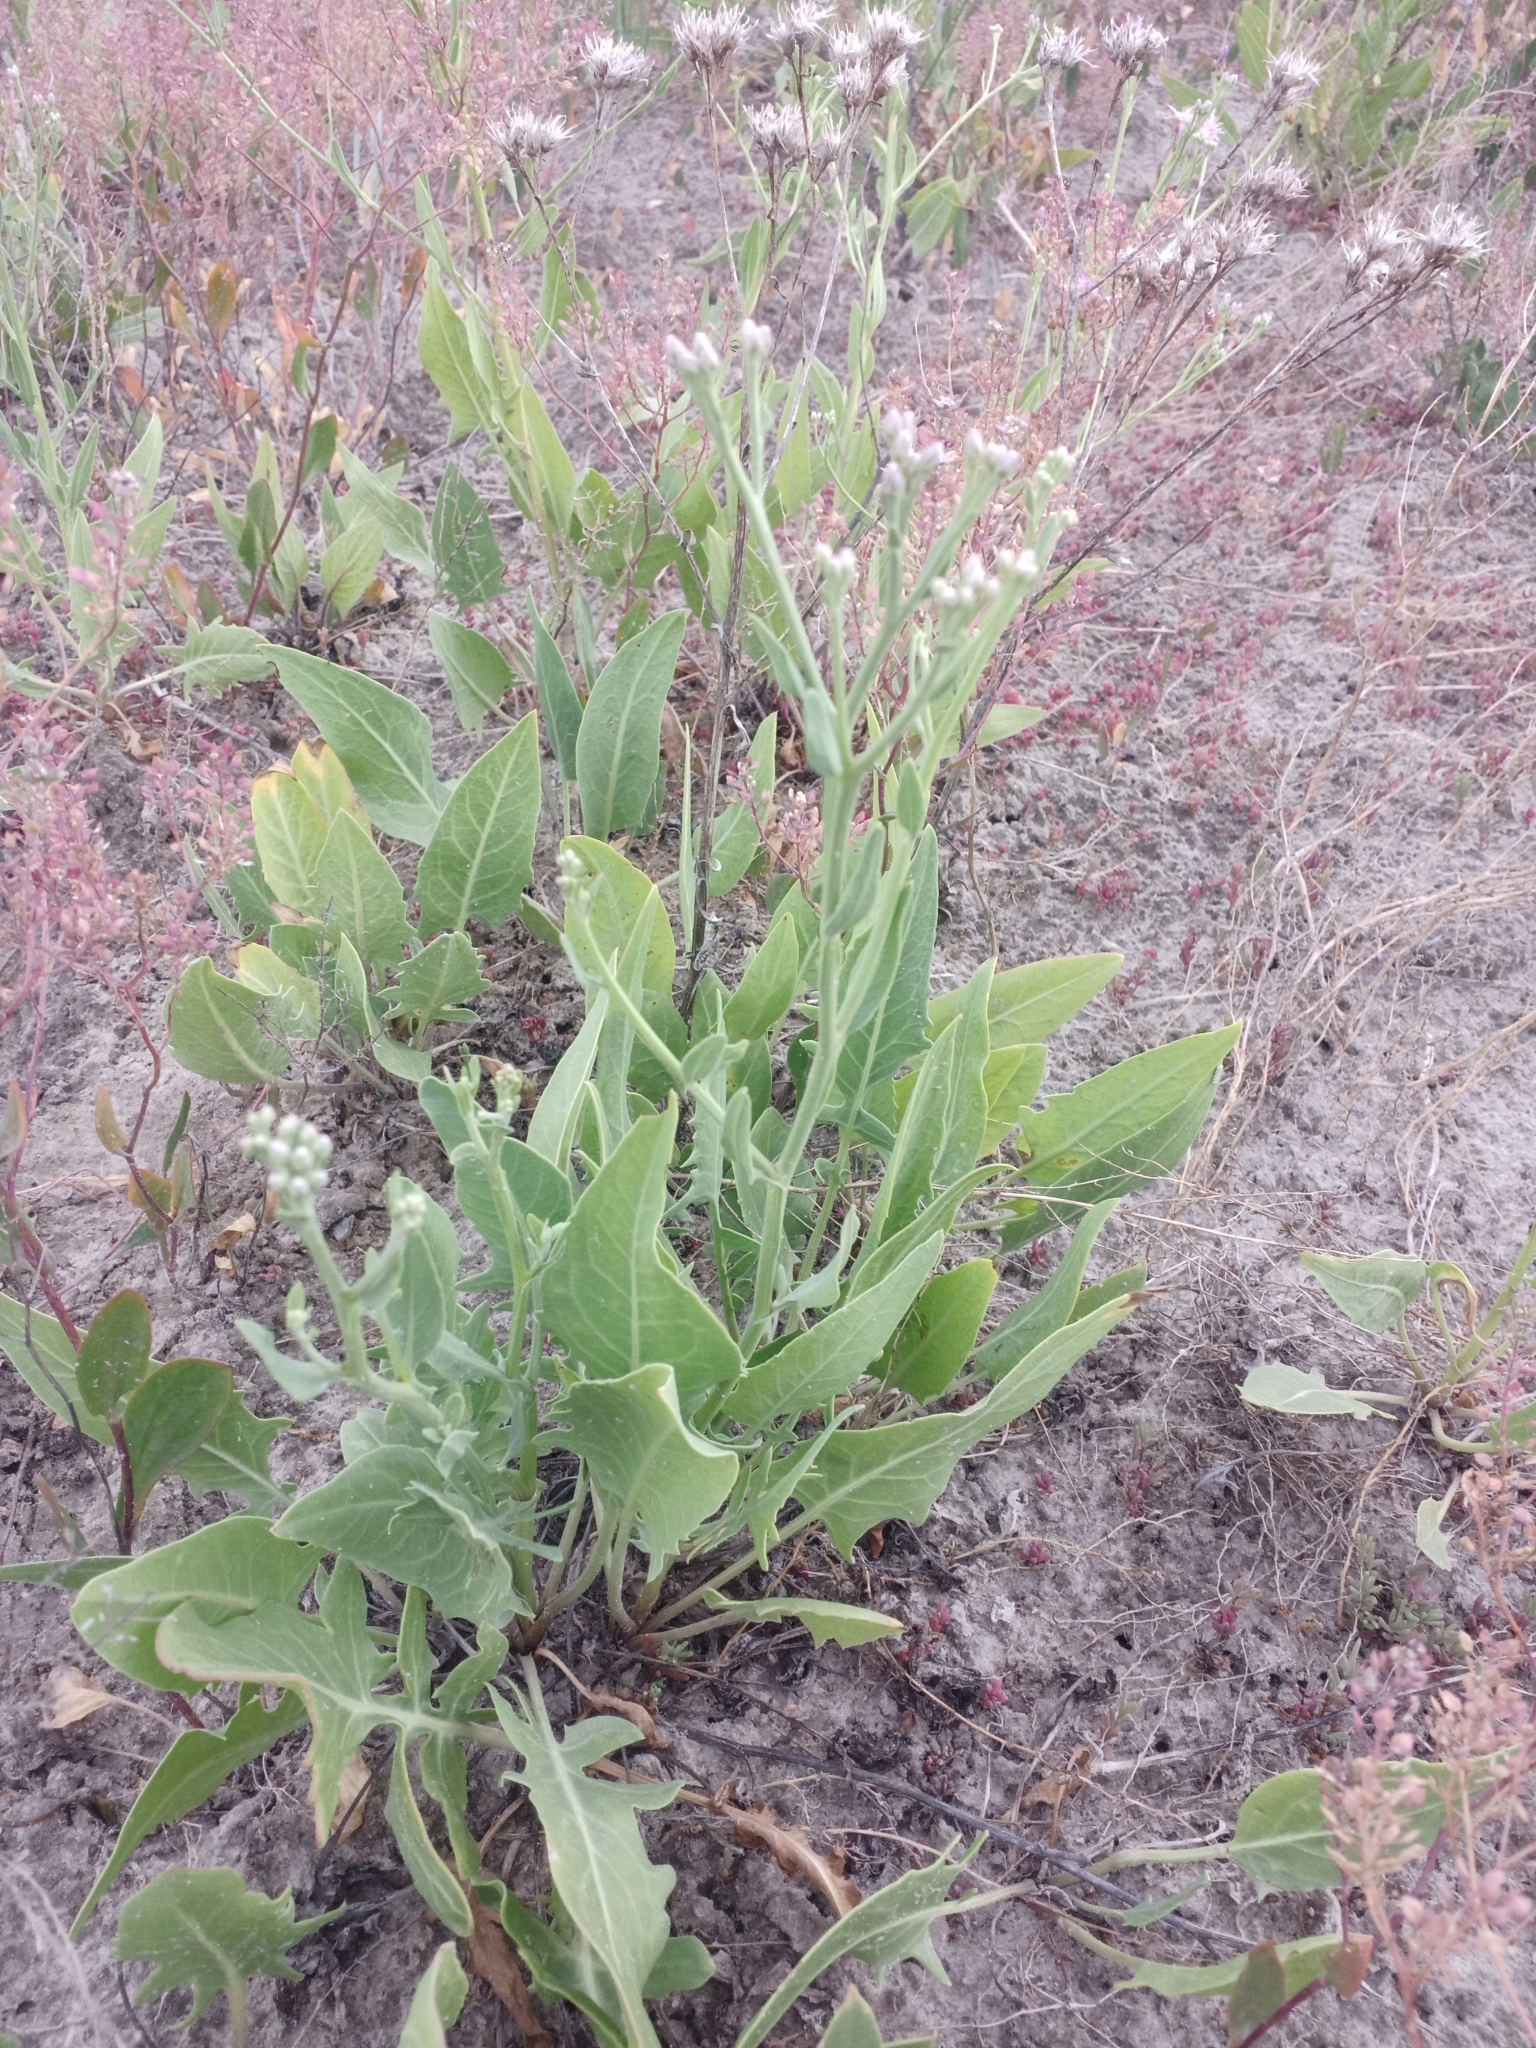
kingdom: Plantae
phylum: Tracheophyta
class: Magnoliopsida
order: Asterales
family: Asteraceae
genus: Saussurea
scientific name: Saussurea salsa
